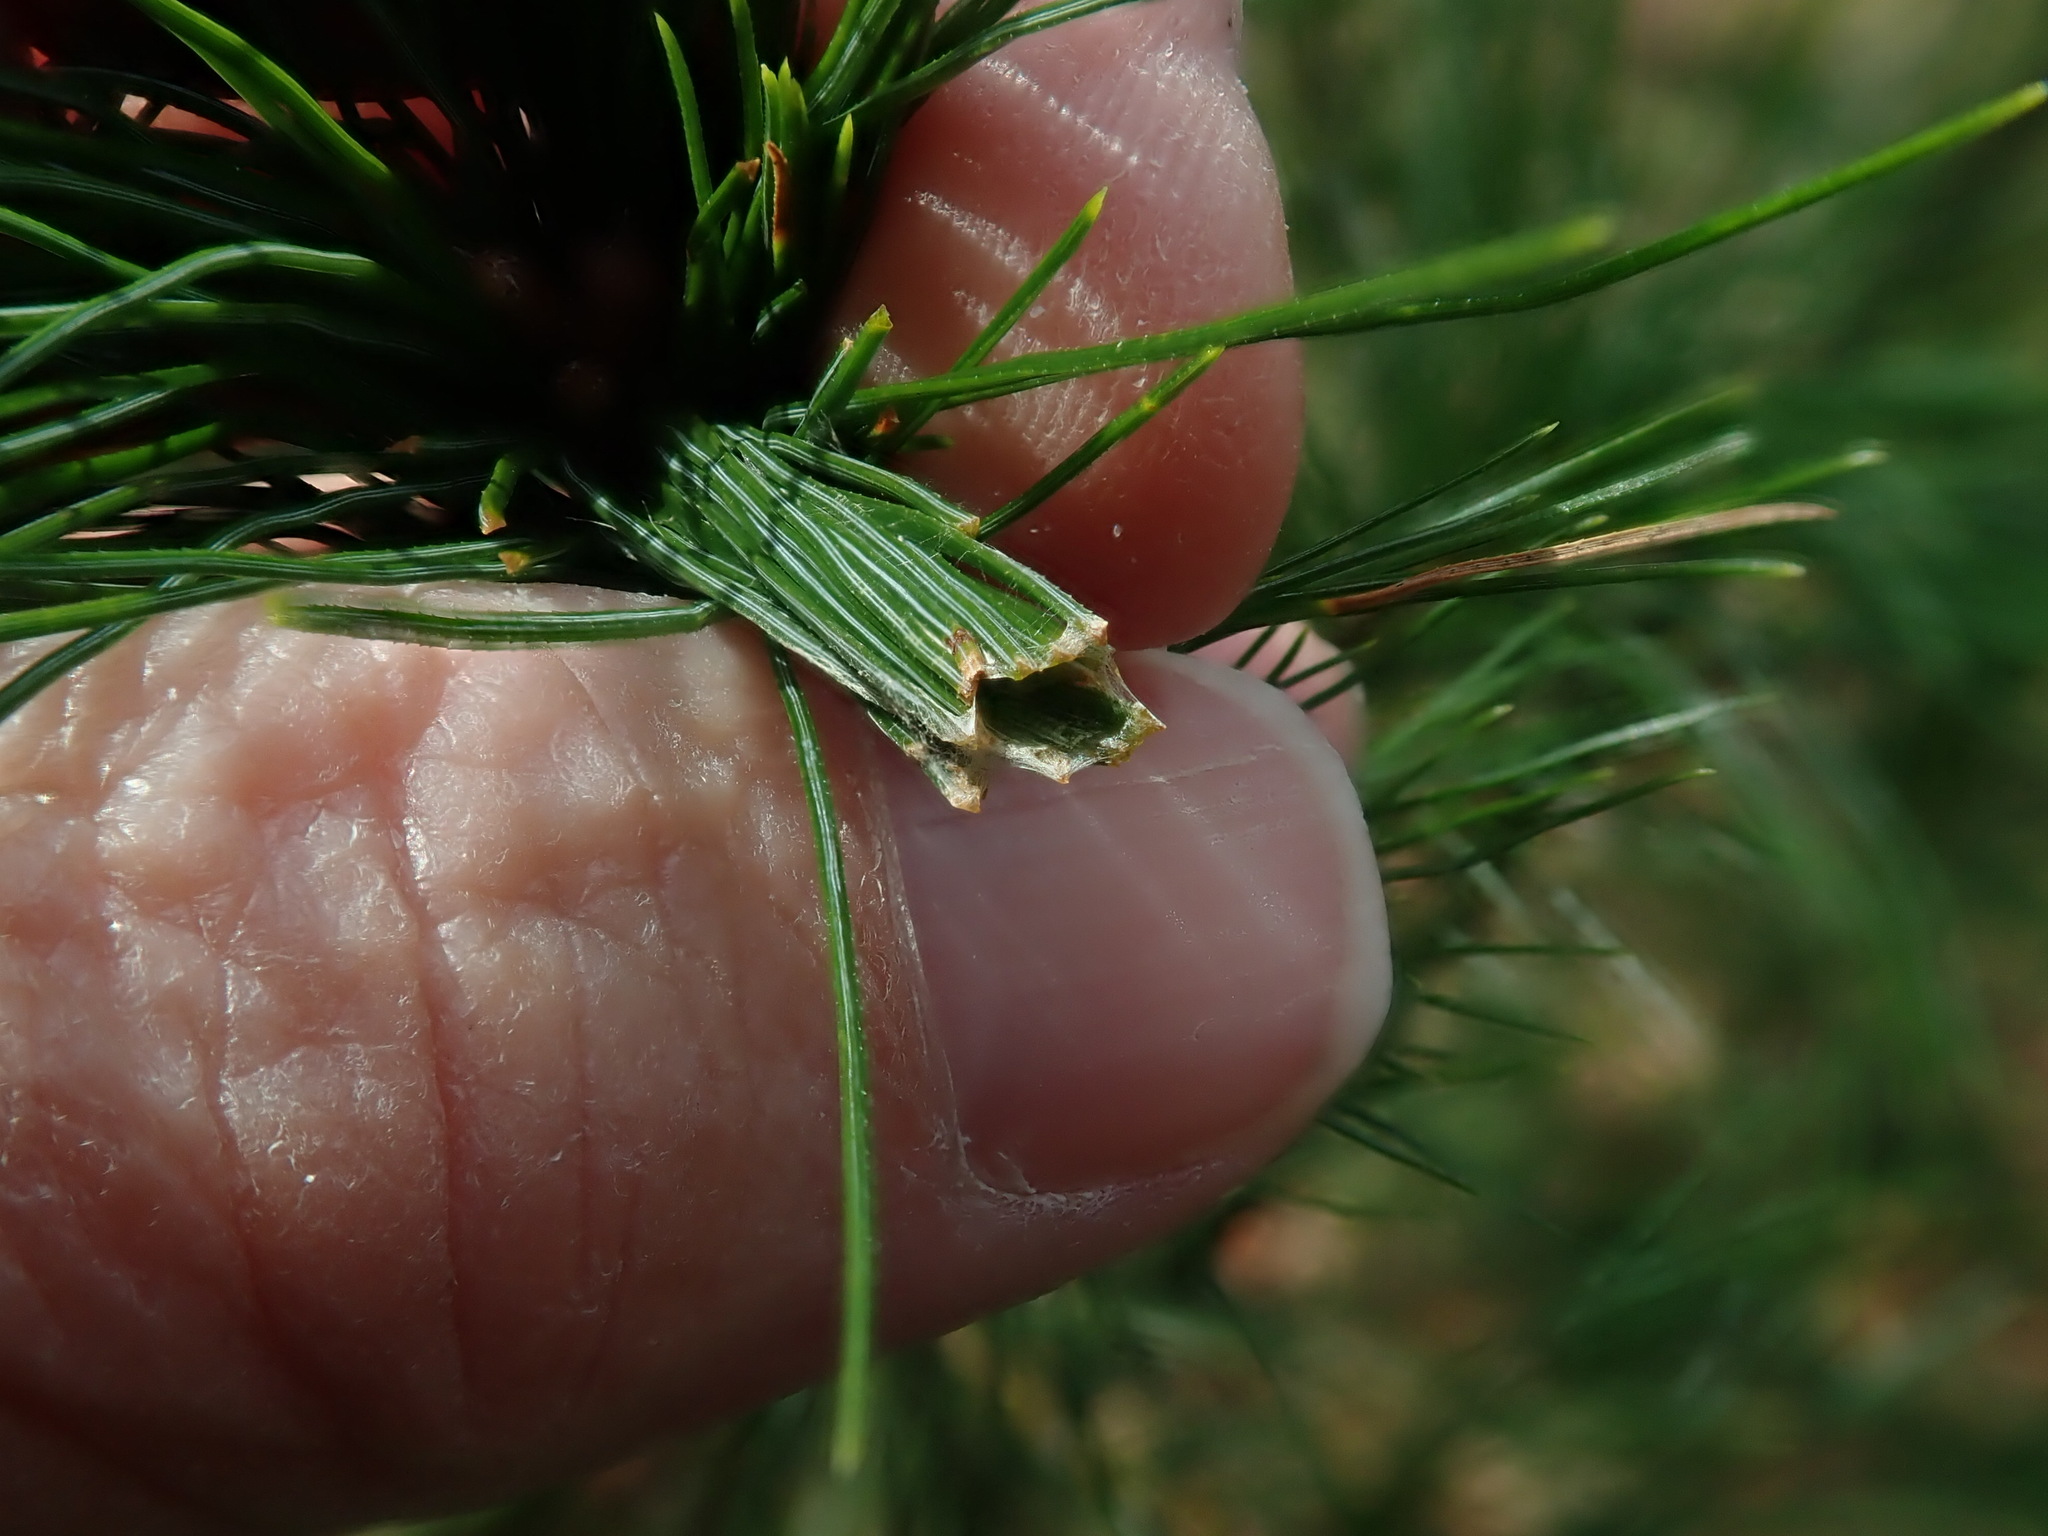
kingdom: Animalia
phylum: Arthropoda
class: Insecta
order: Lepidoptera
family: Tortricidae
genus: Argyrotaenia
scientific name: Argyrotaenia pinatubana
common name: Pine tube moth
